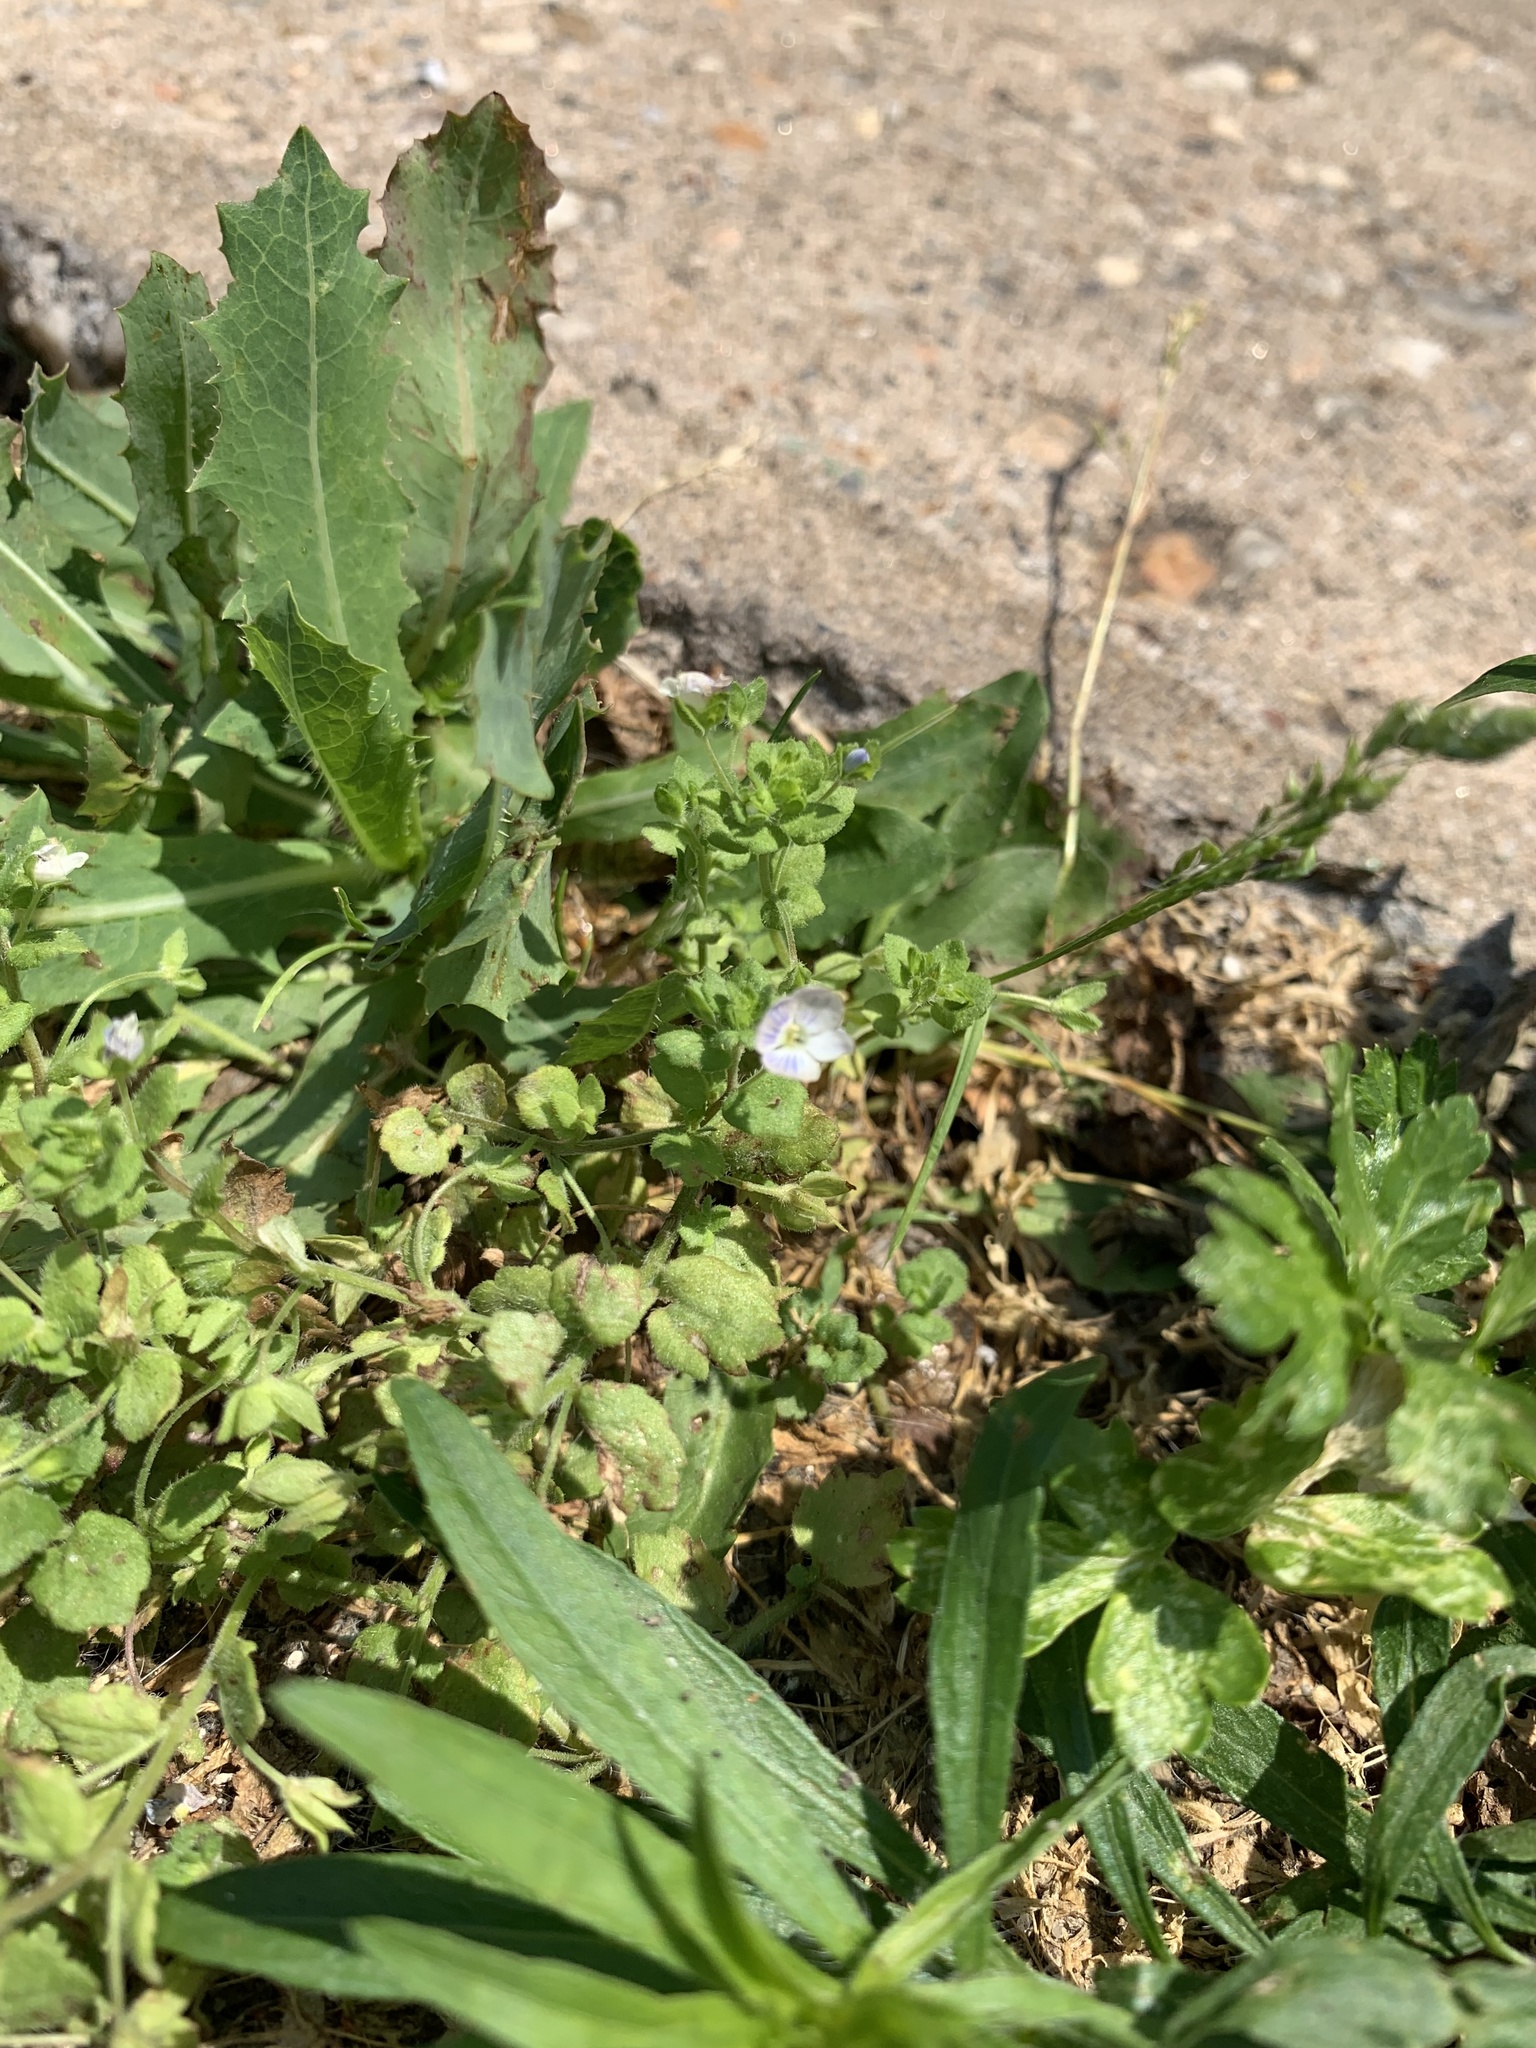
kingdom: Plantae
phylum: Tracheophyta
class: Magnoliopsida
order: Lamiales
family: Plantaginaceae
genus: Veronica
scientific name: Veronica persica
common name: Common field-speedwell
